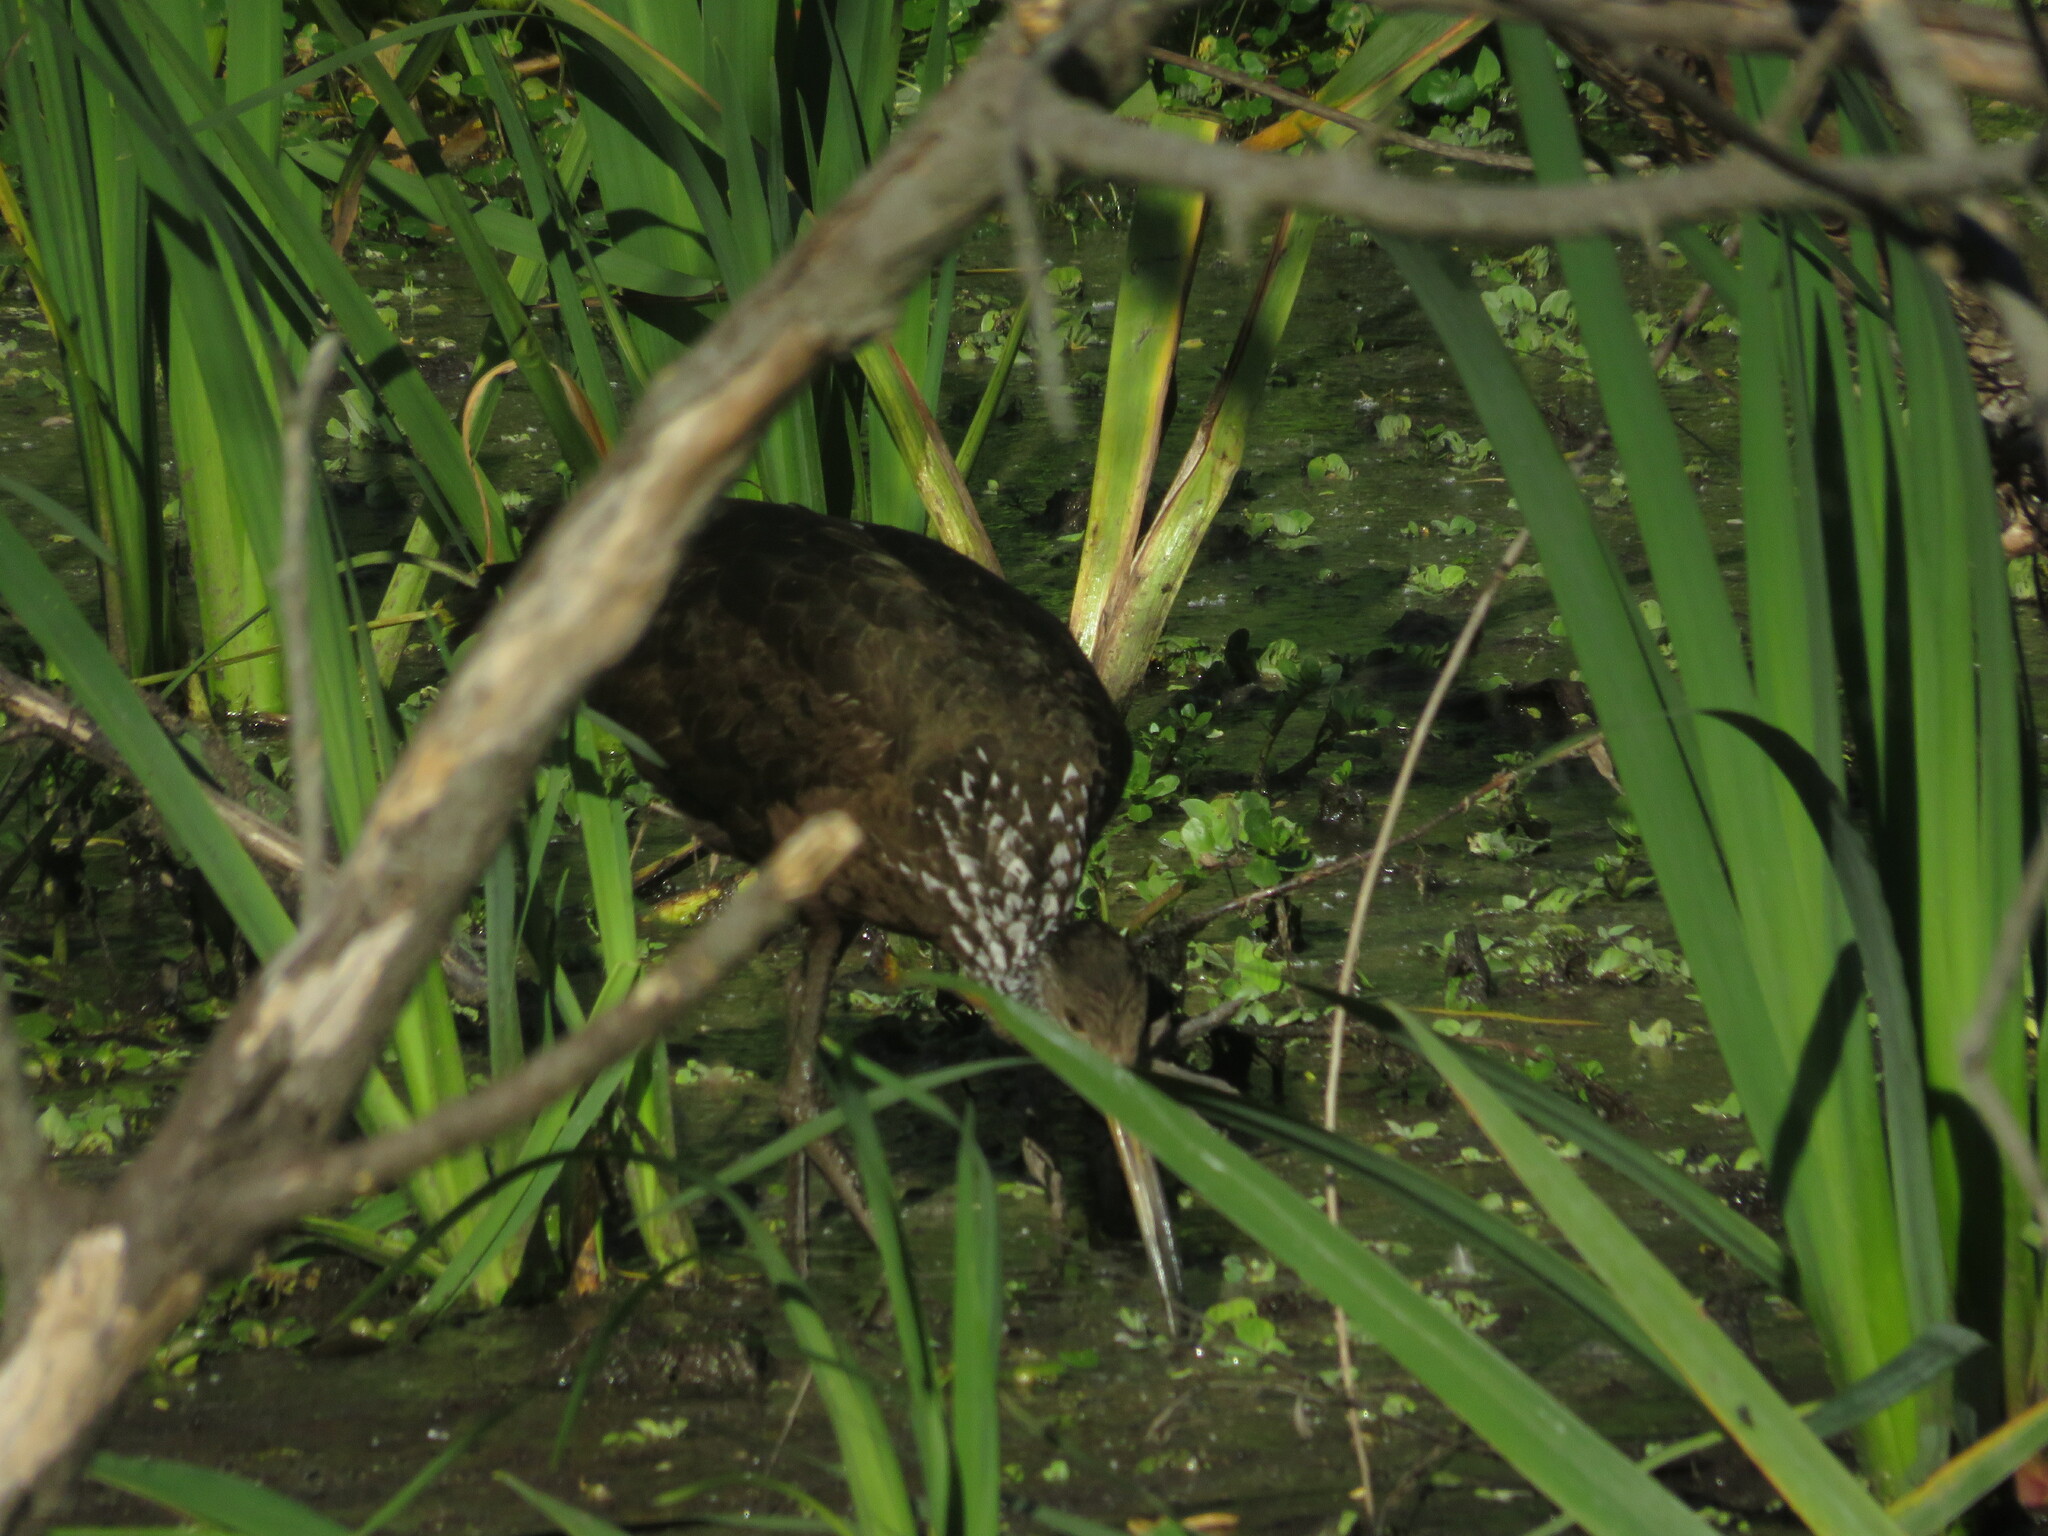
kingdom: Animalia
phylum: Chordata
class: Aves
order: Gruiformes
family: Aramidae
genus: Aramus
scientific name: Aramus guarauna
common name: Limpkin
